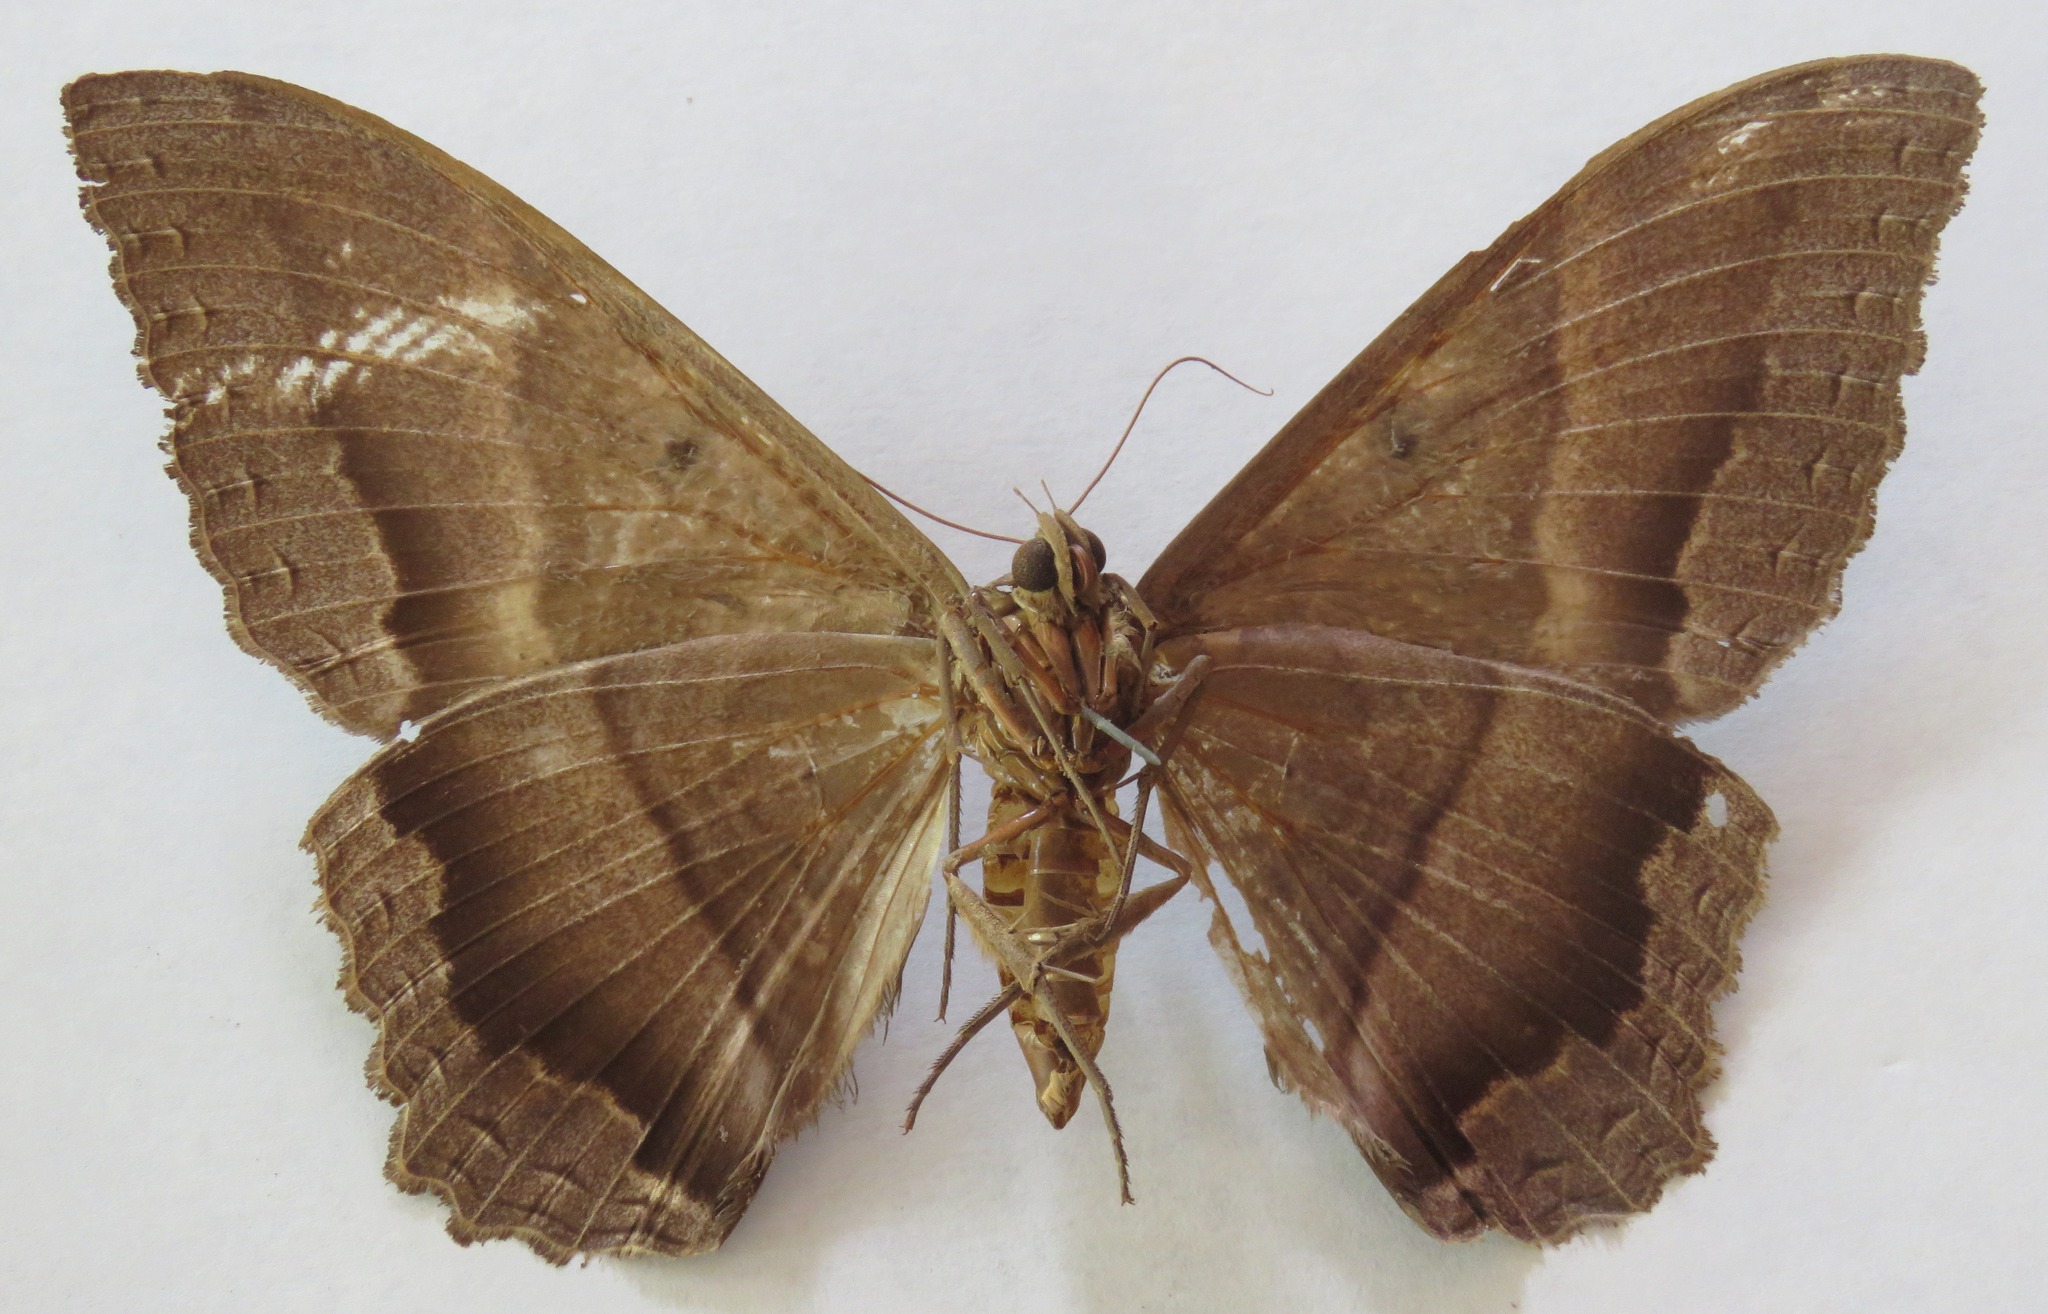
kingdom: Animalia
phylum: Arthropoda
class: Insecta
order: Lepidoptera
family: Erebidae
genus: Ascalapha
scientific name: Ascalapha odorata
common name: Black witch
